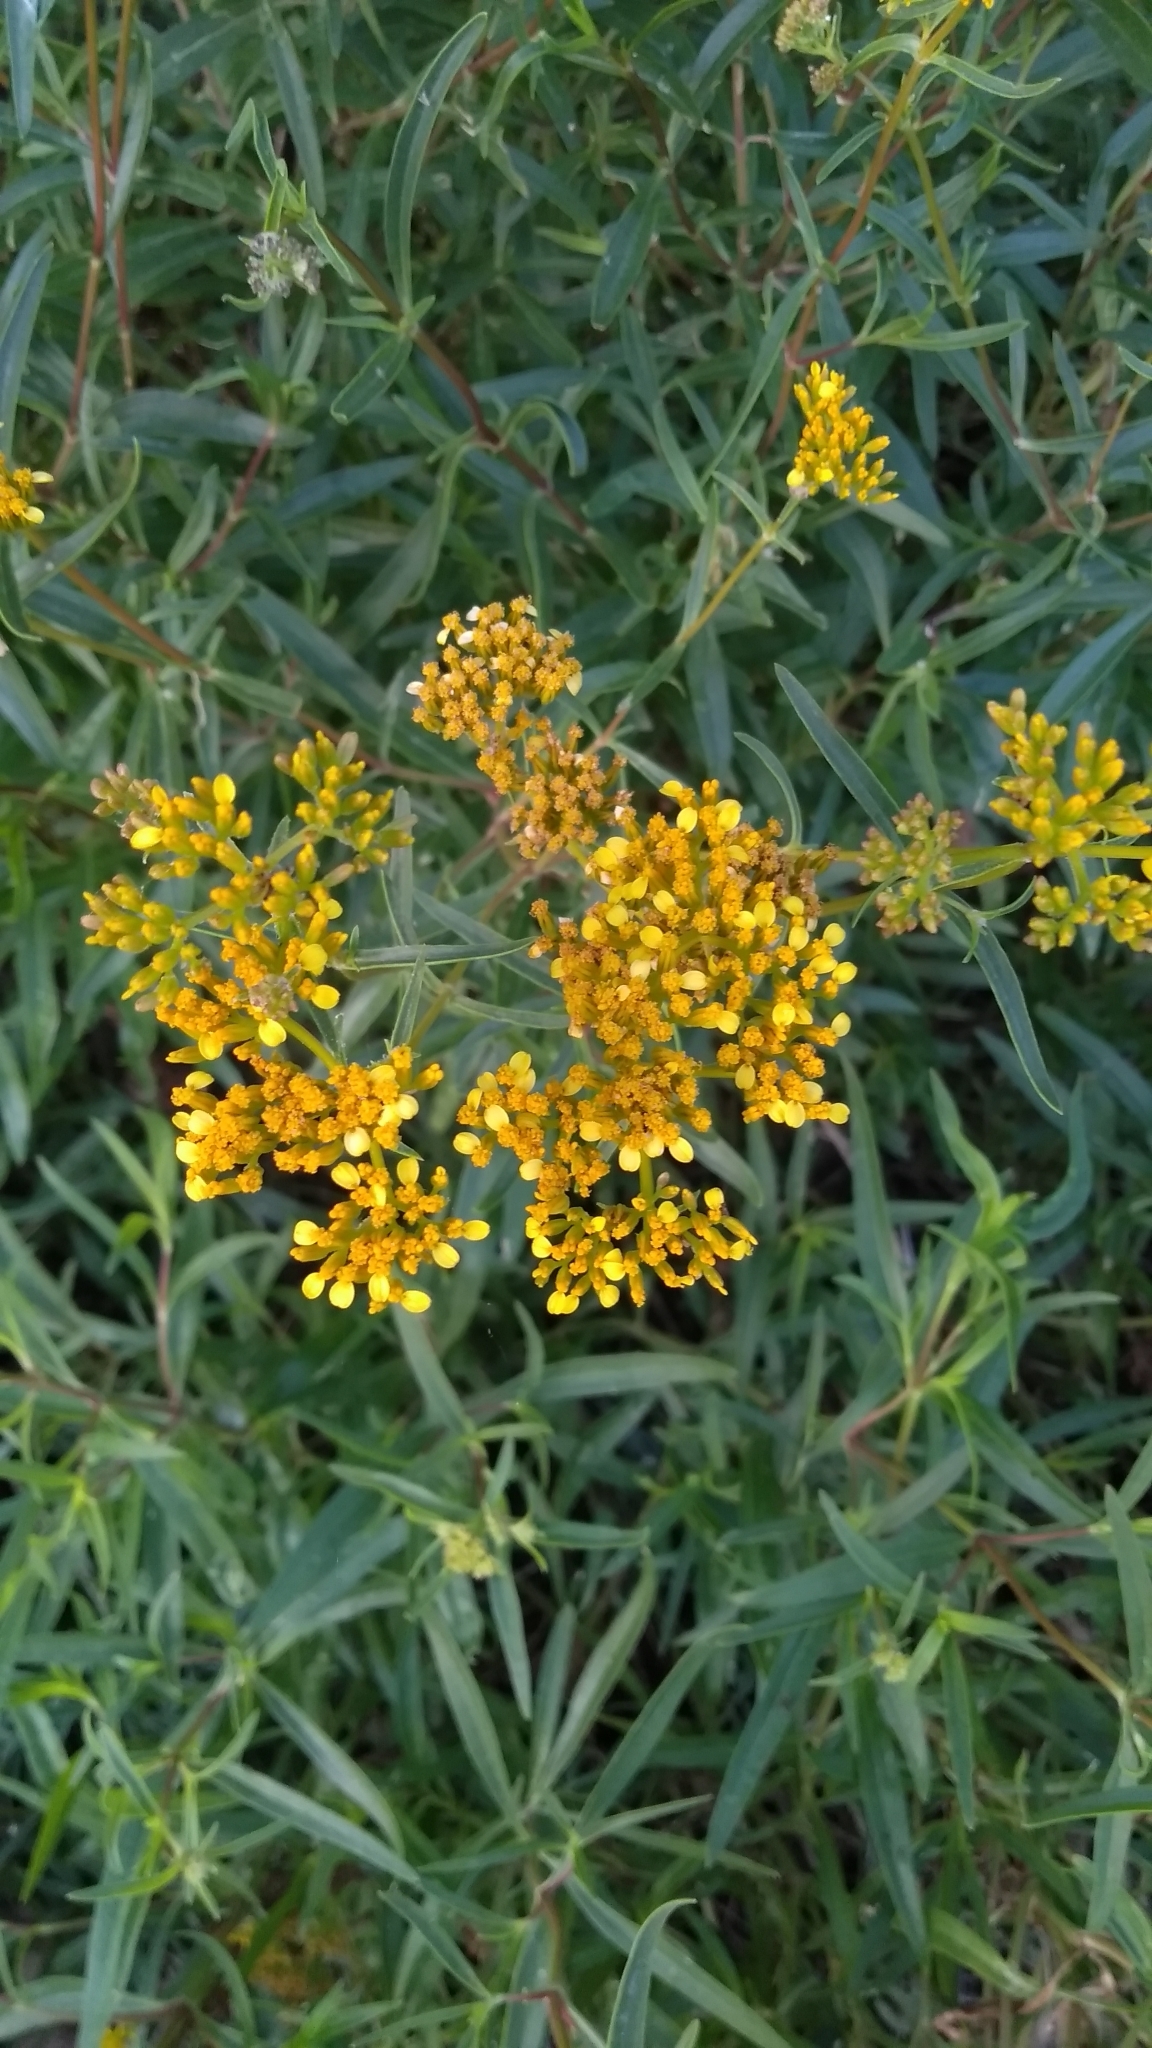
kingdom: Plantae
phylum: Tracheophyta
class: Magnoliopsida
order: Asterales
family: Asteraceae
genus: Flaveria
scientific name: Flaveria linearis
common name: Yellowtop
